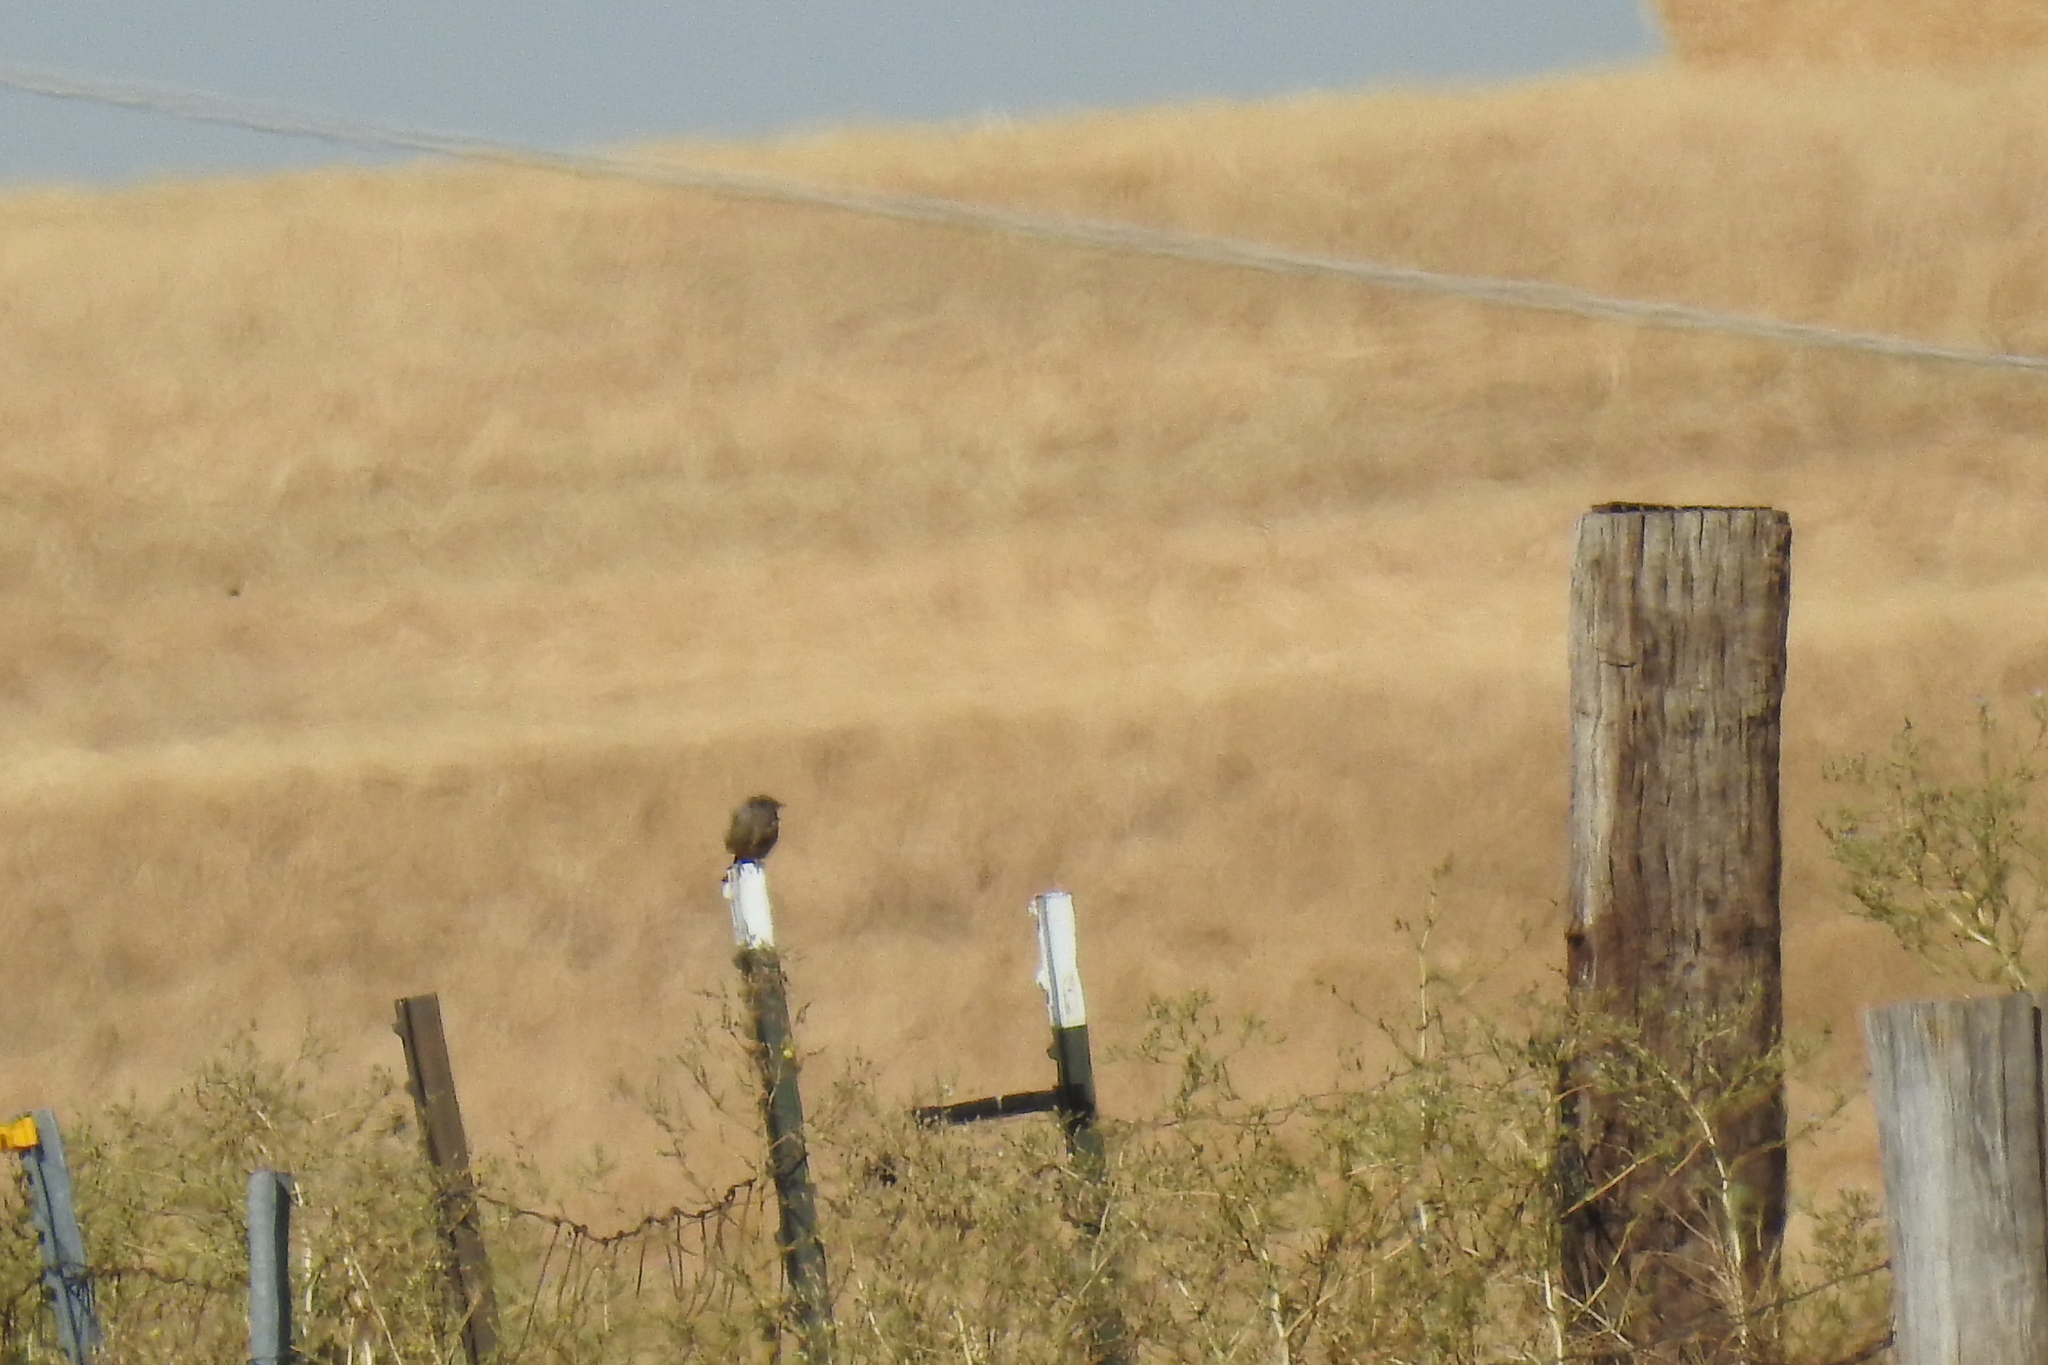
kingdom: Animalia
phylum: Chordata
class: Aves
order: Passeriformes
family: Tyrannidae
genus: Sayornis
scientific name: Sayornis saya
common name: Say's phoebe
